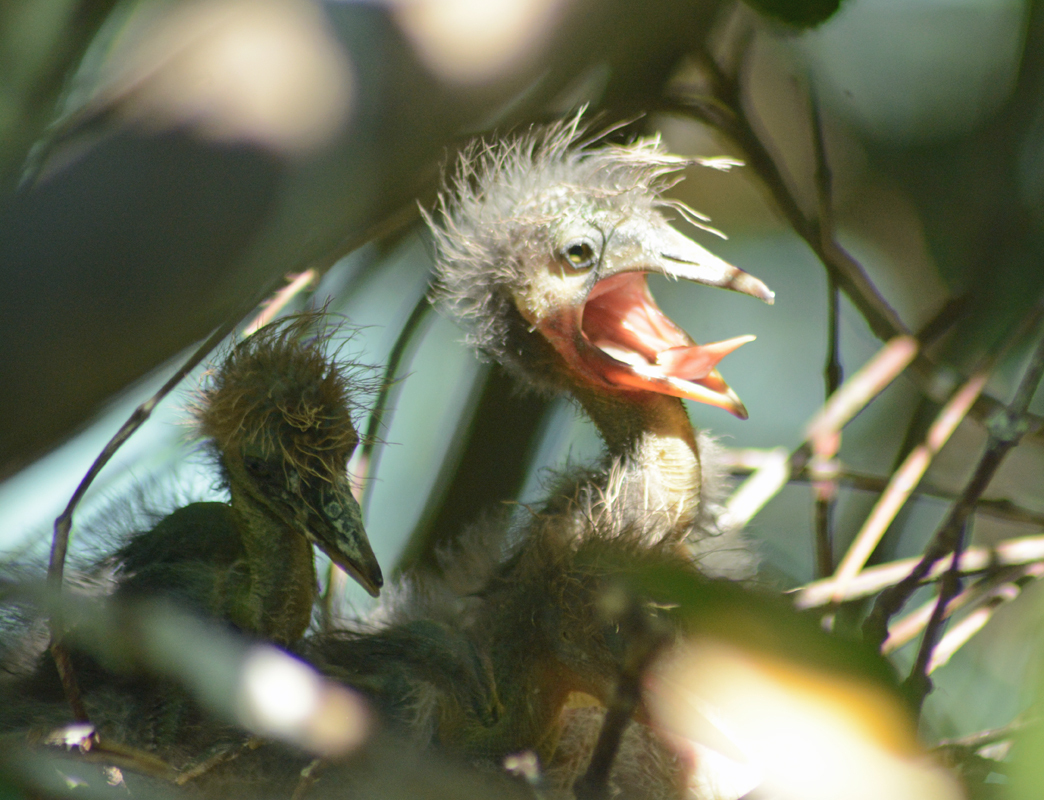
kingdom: Animalia
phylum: Chordata
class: Aves
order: Pelecaniformes
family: Ardeidae
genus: Egretta
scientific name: Egretta rufescens
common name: Reddish egret
